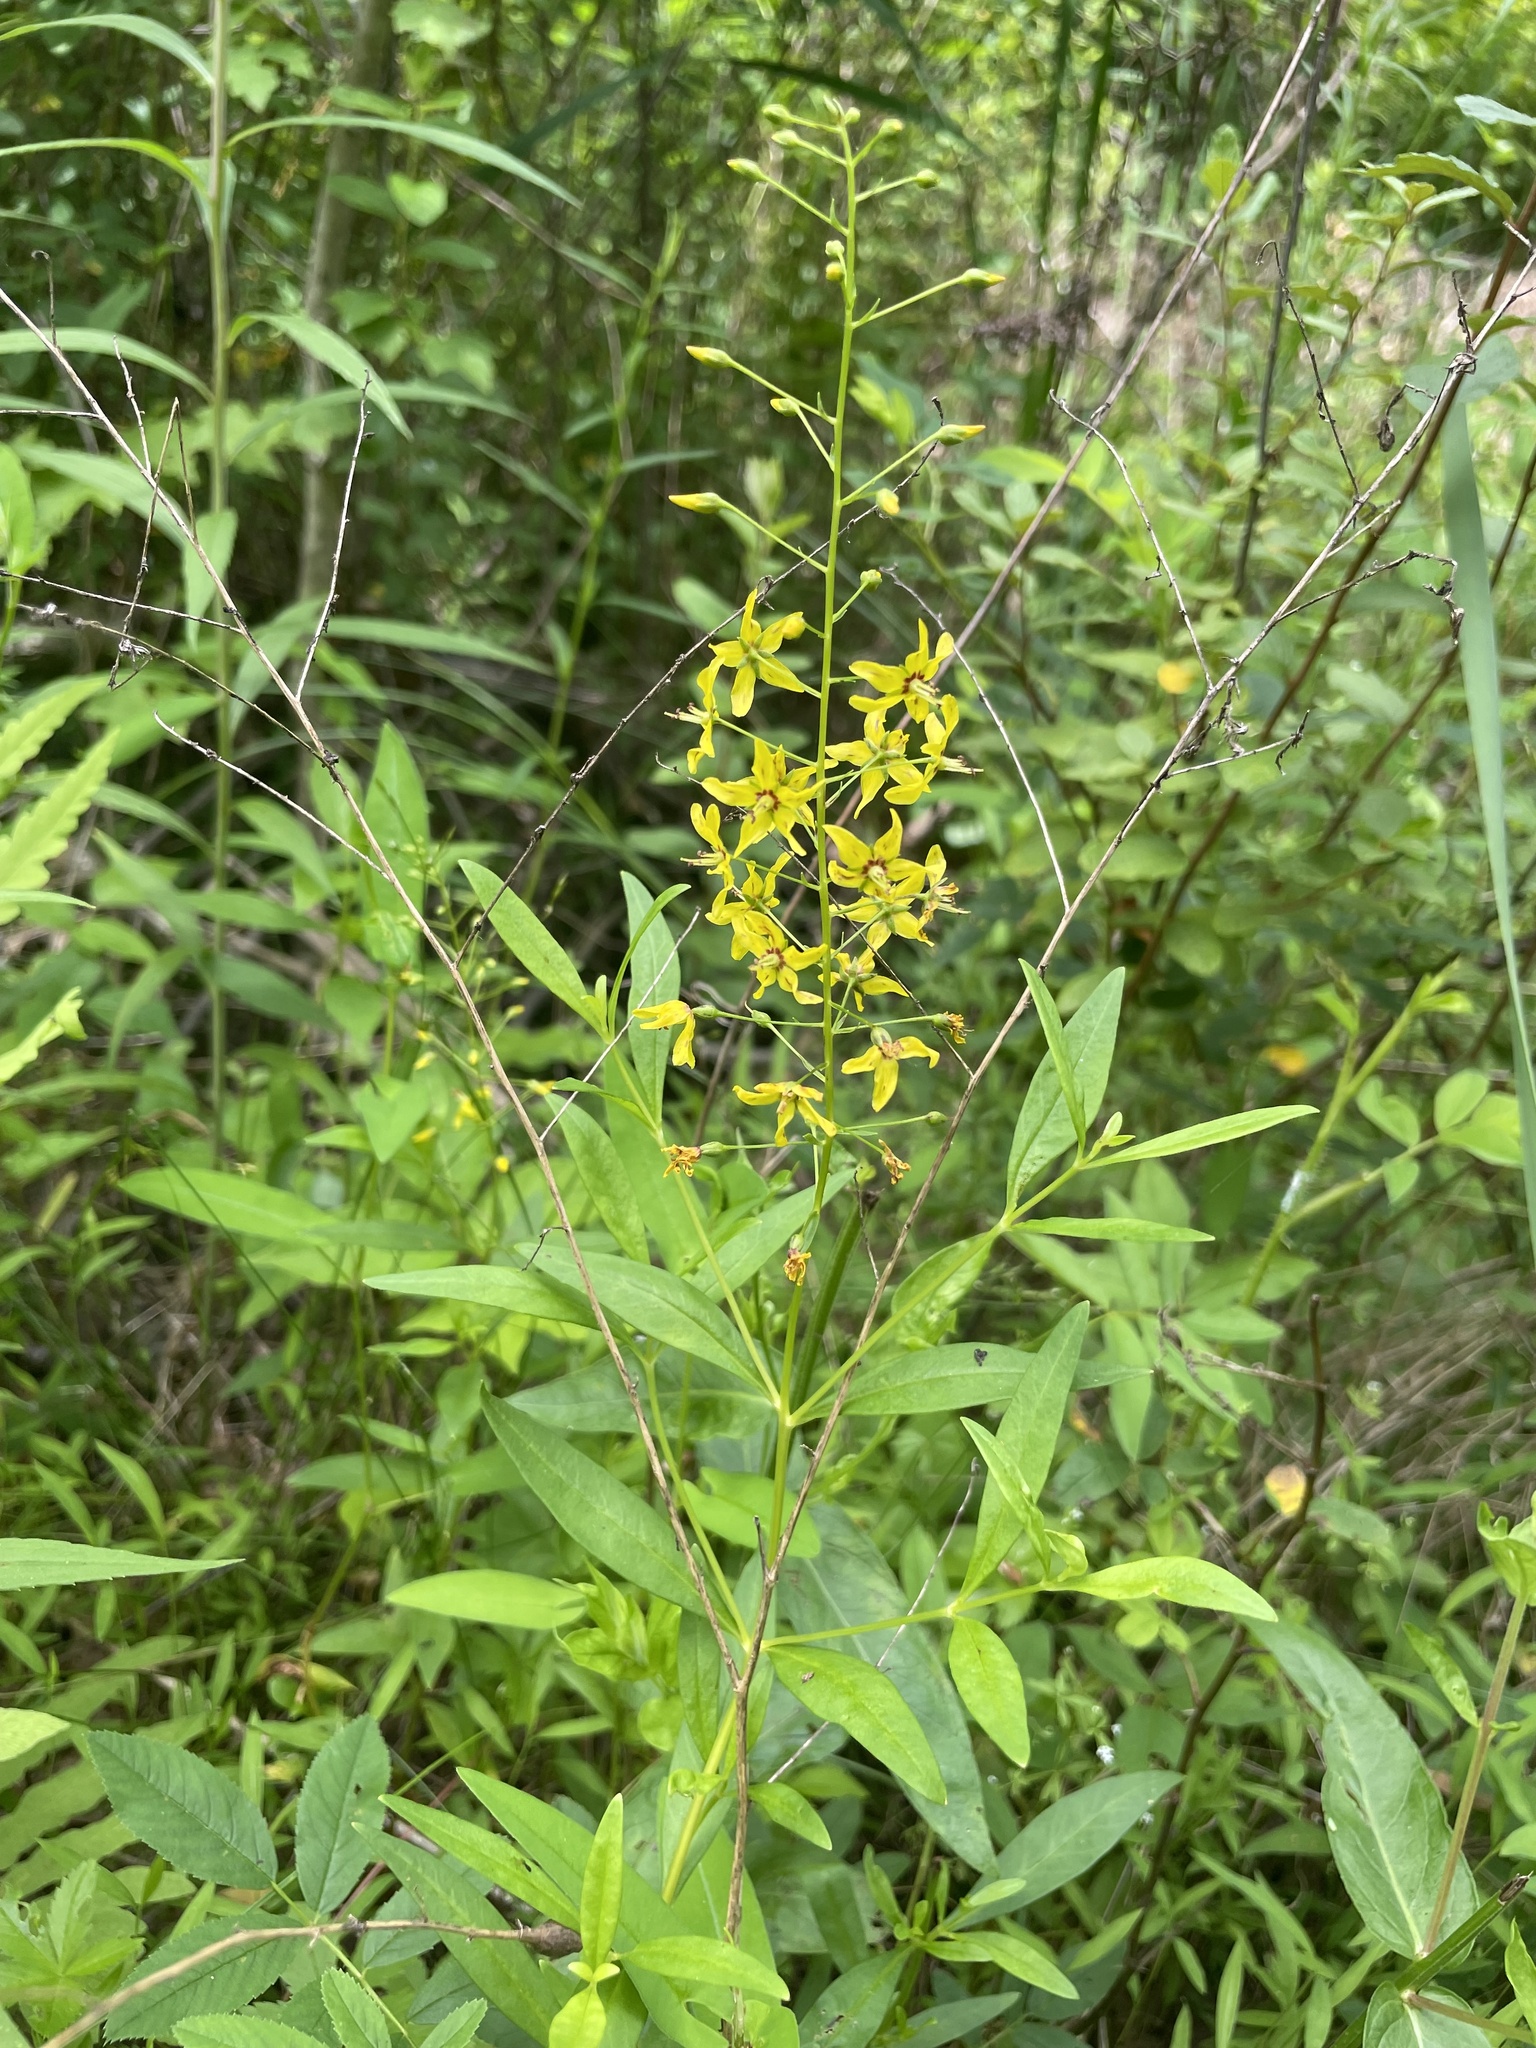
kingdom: Plantae
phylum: Tracheophyta
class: Magnoliopsida
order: Ericales
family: Primulaceae
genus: Lysimachia
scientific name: Lysimachia terrestris
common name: Lake loosestrife
